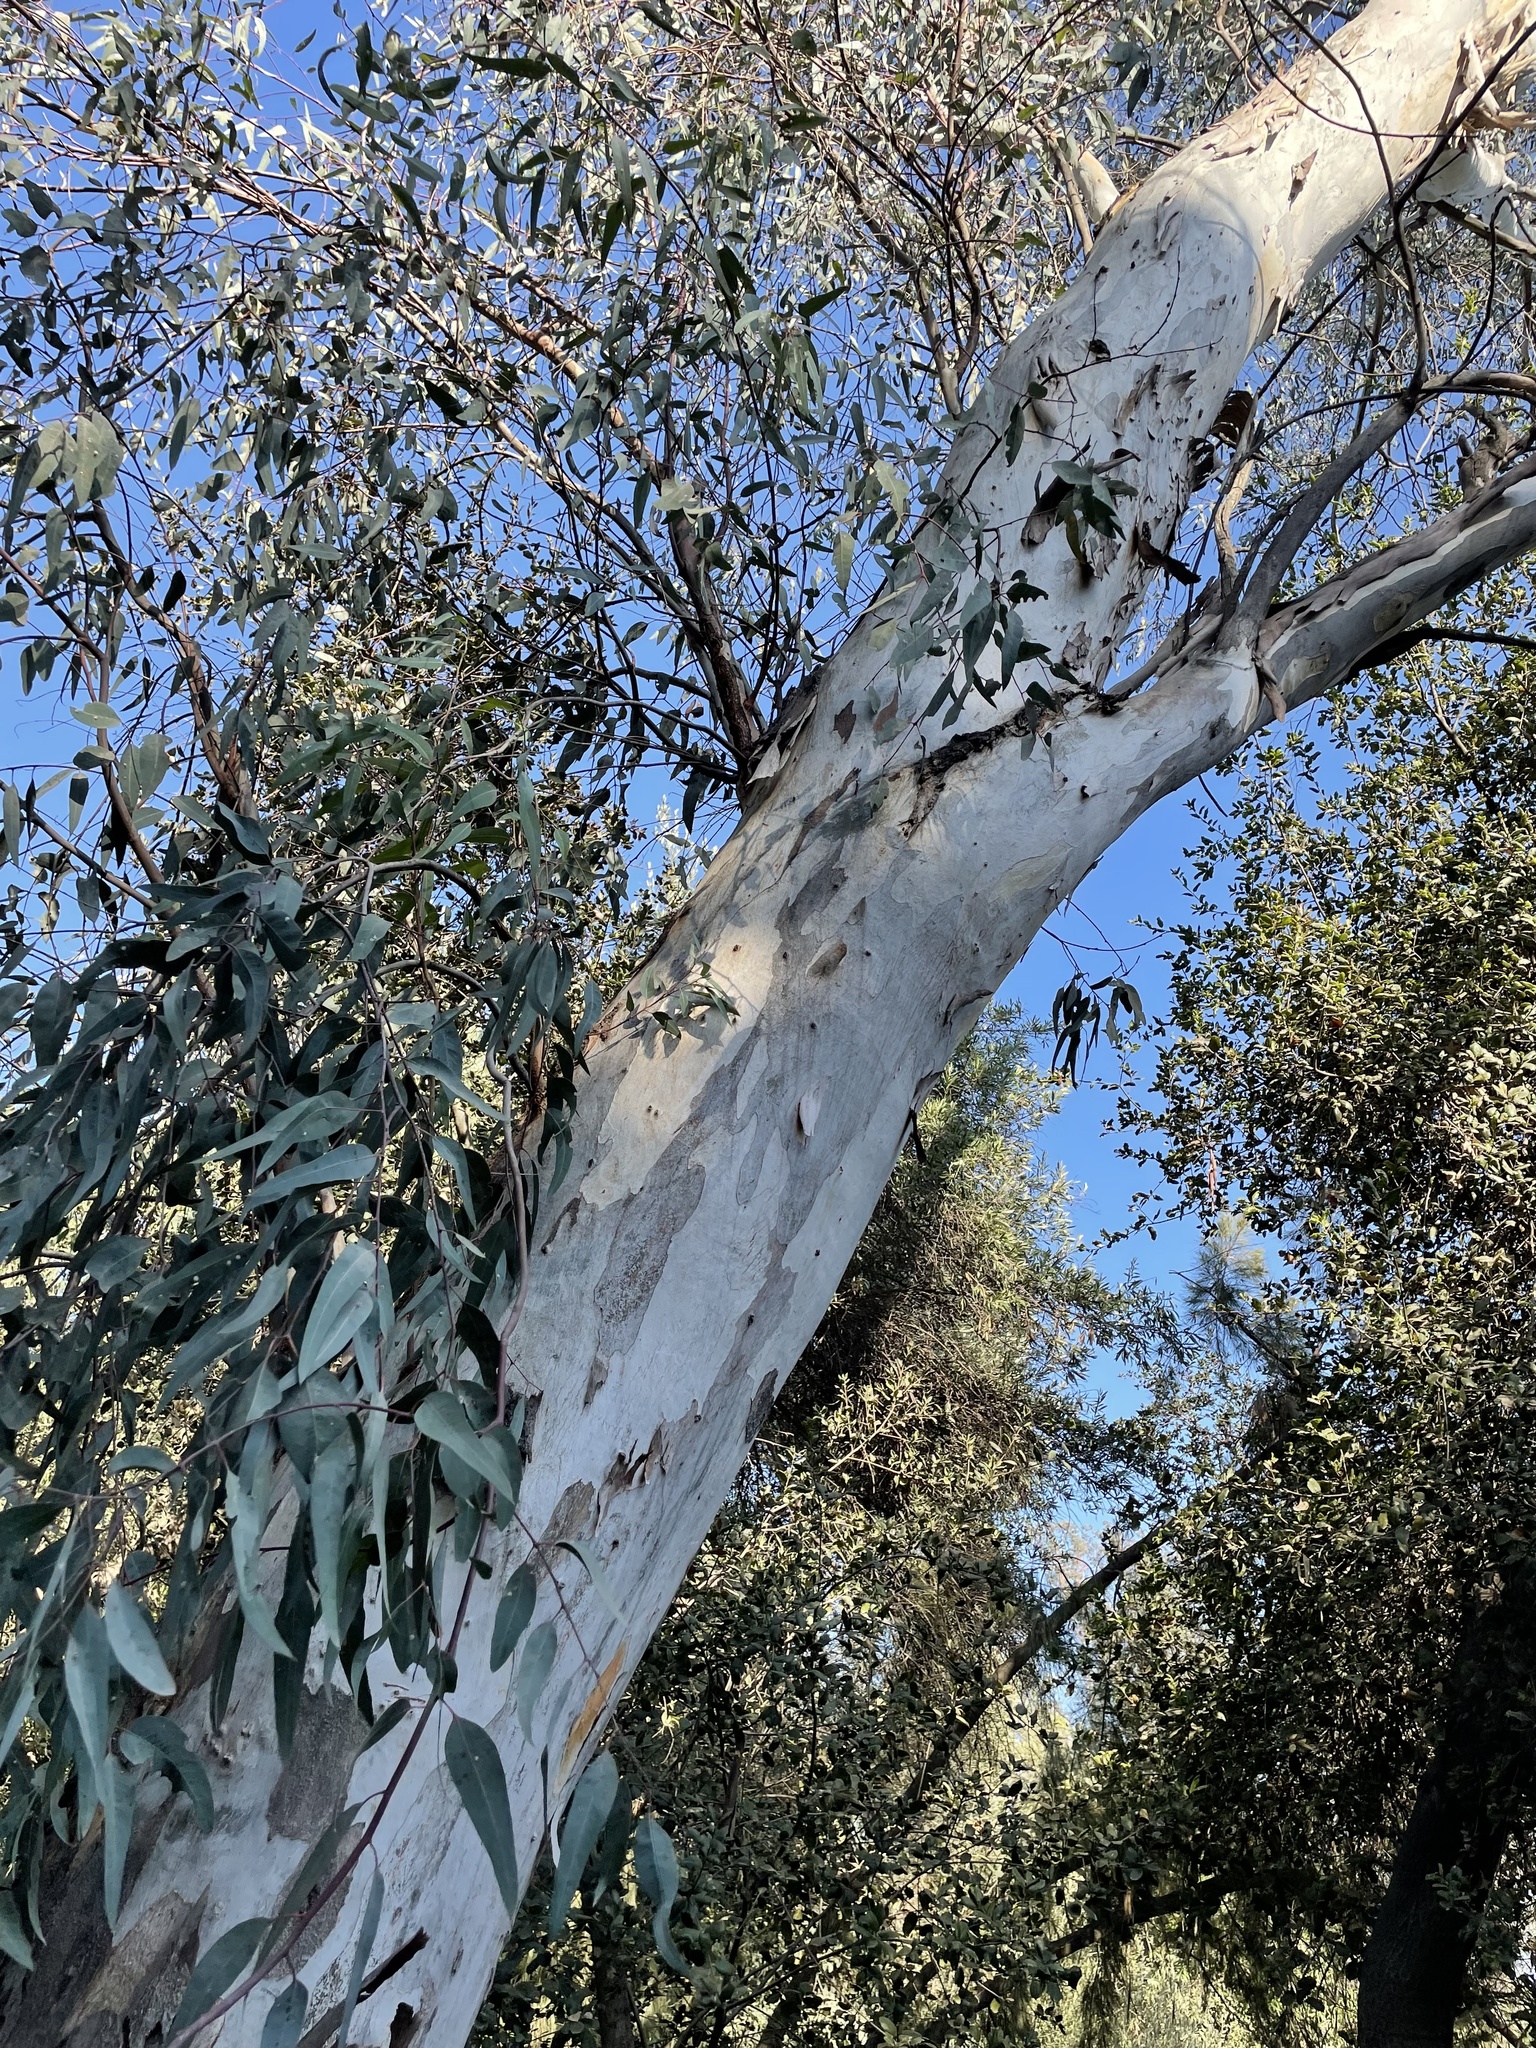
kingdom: Plantae
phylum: Tracheophyta
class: Magnoliopsida
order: Myrtales
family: Myrtaceae
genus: Eucalyptus
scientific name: Eucalyptus camaldulensis
